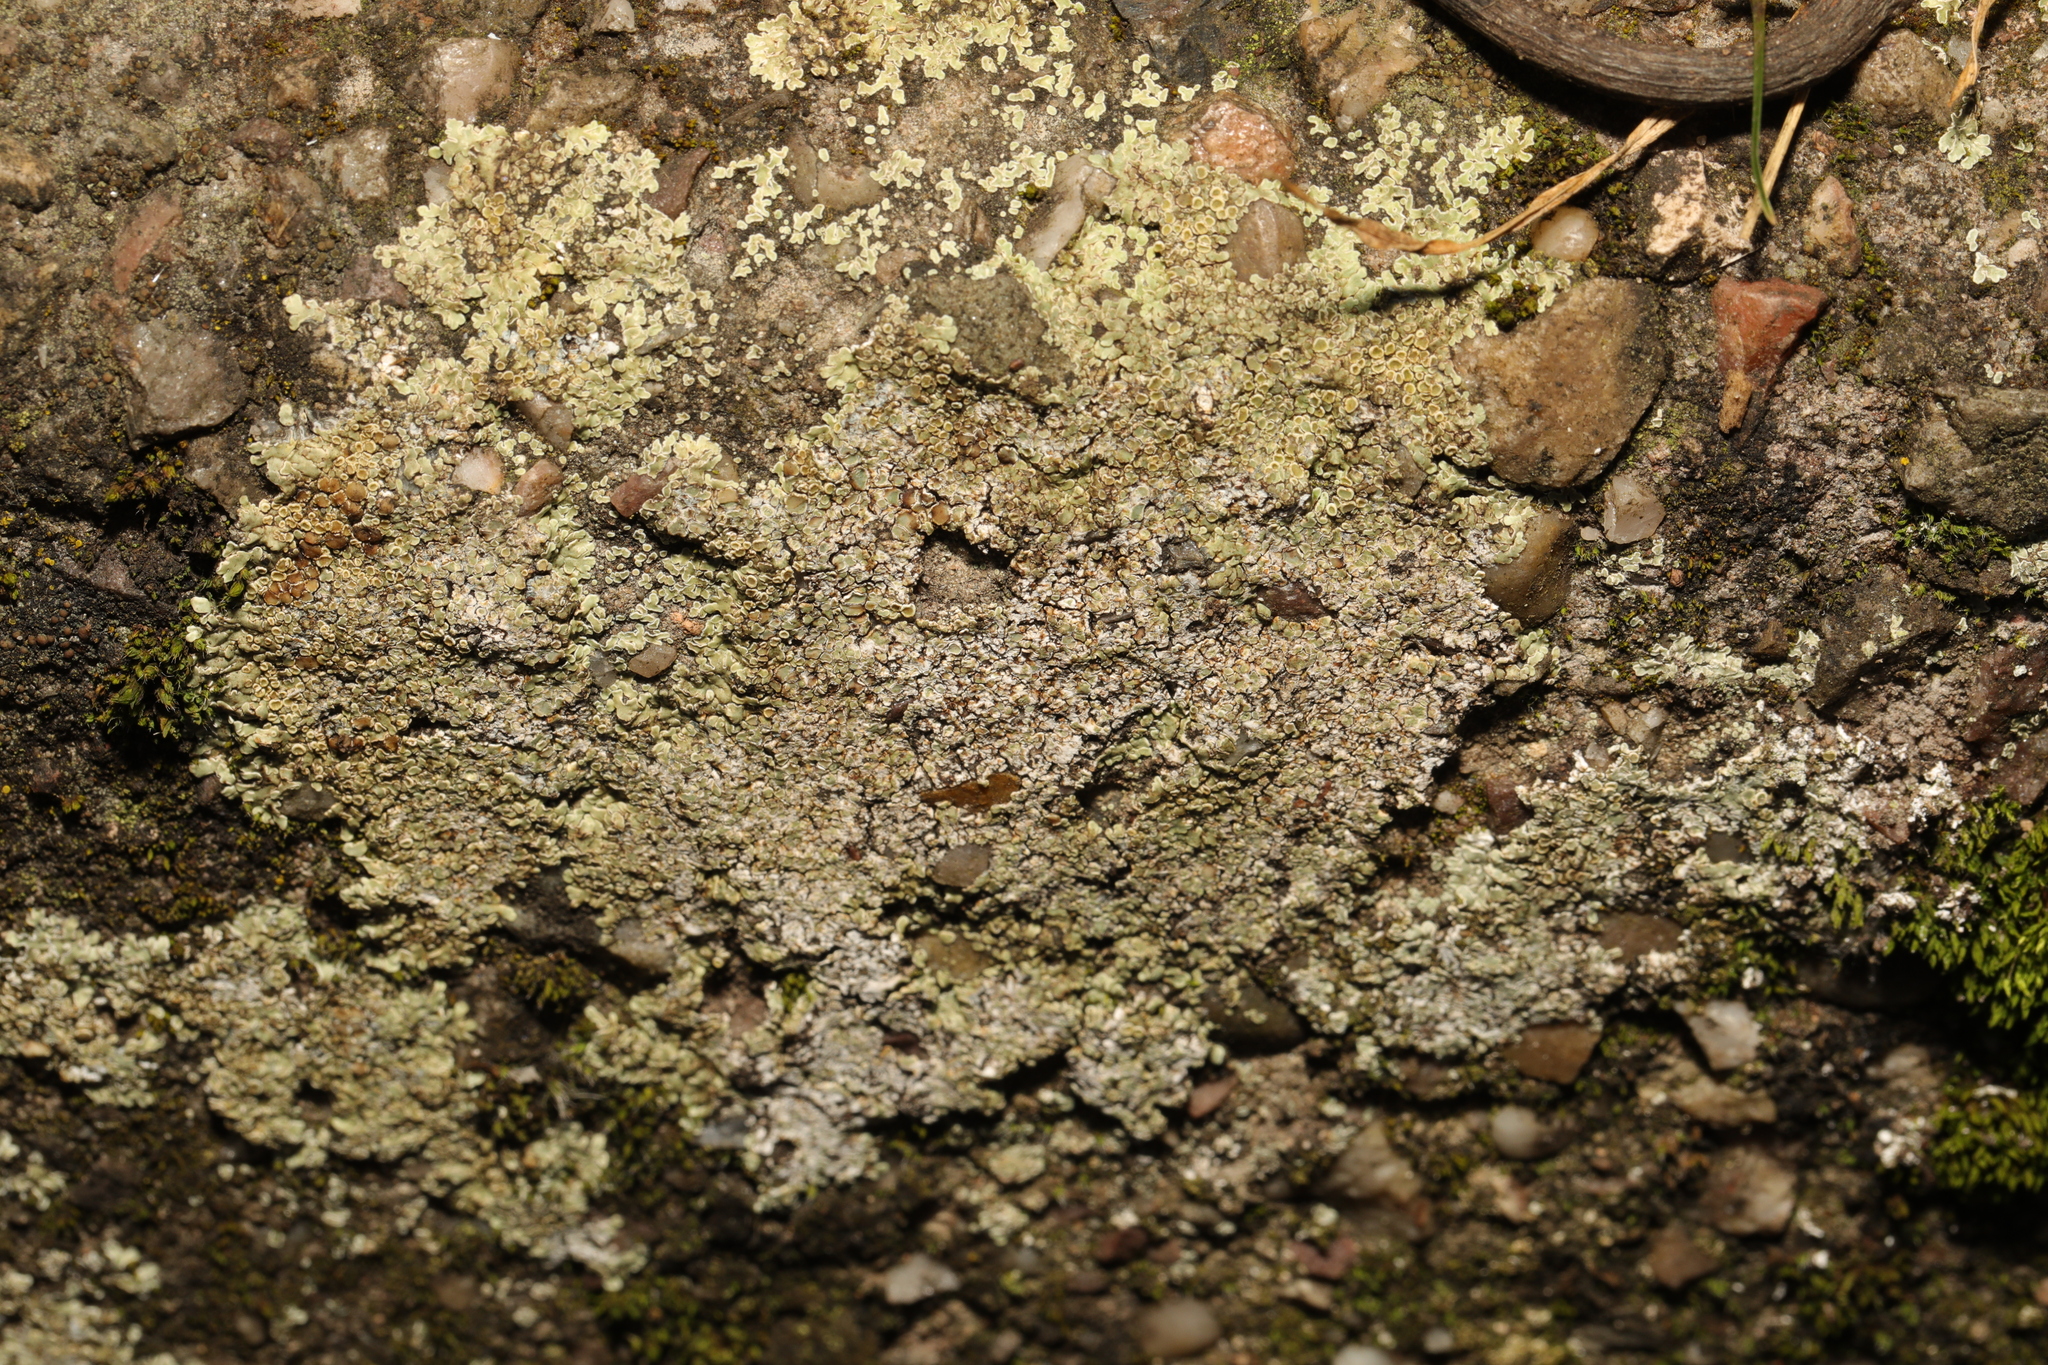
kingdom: Fungi
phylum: Ascomycota
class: Lecanoromycetes
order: Lecanorales
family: Lecanoraceae
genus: Protoparmeliopsis
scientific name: Protoparmeliopsis muralis
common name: Stonewall rim lichen
